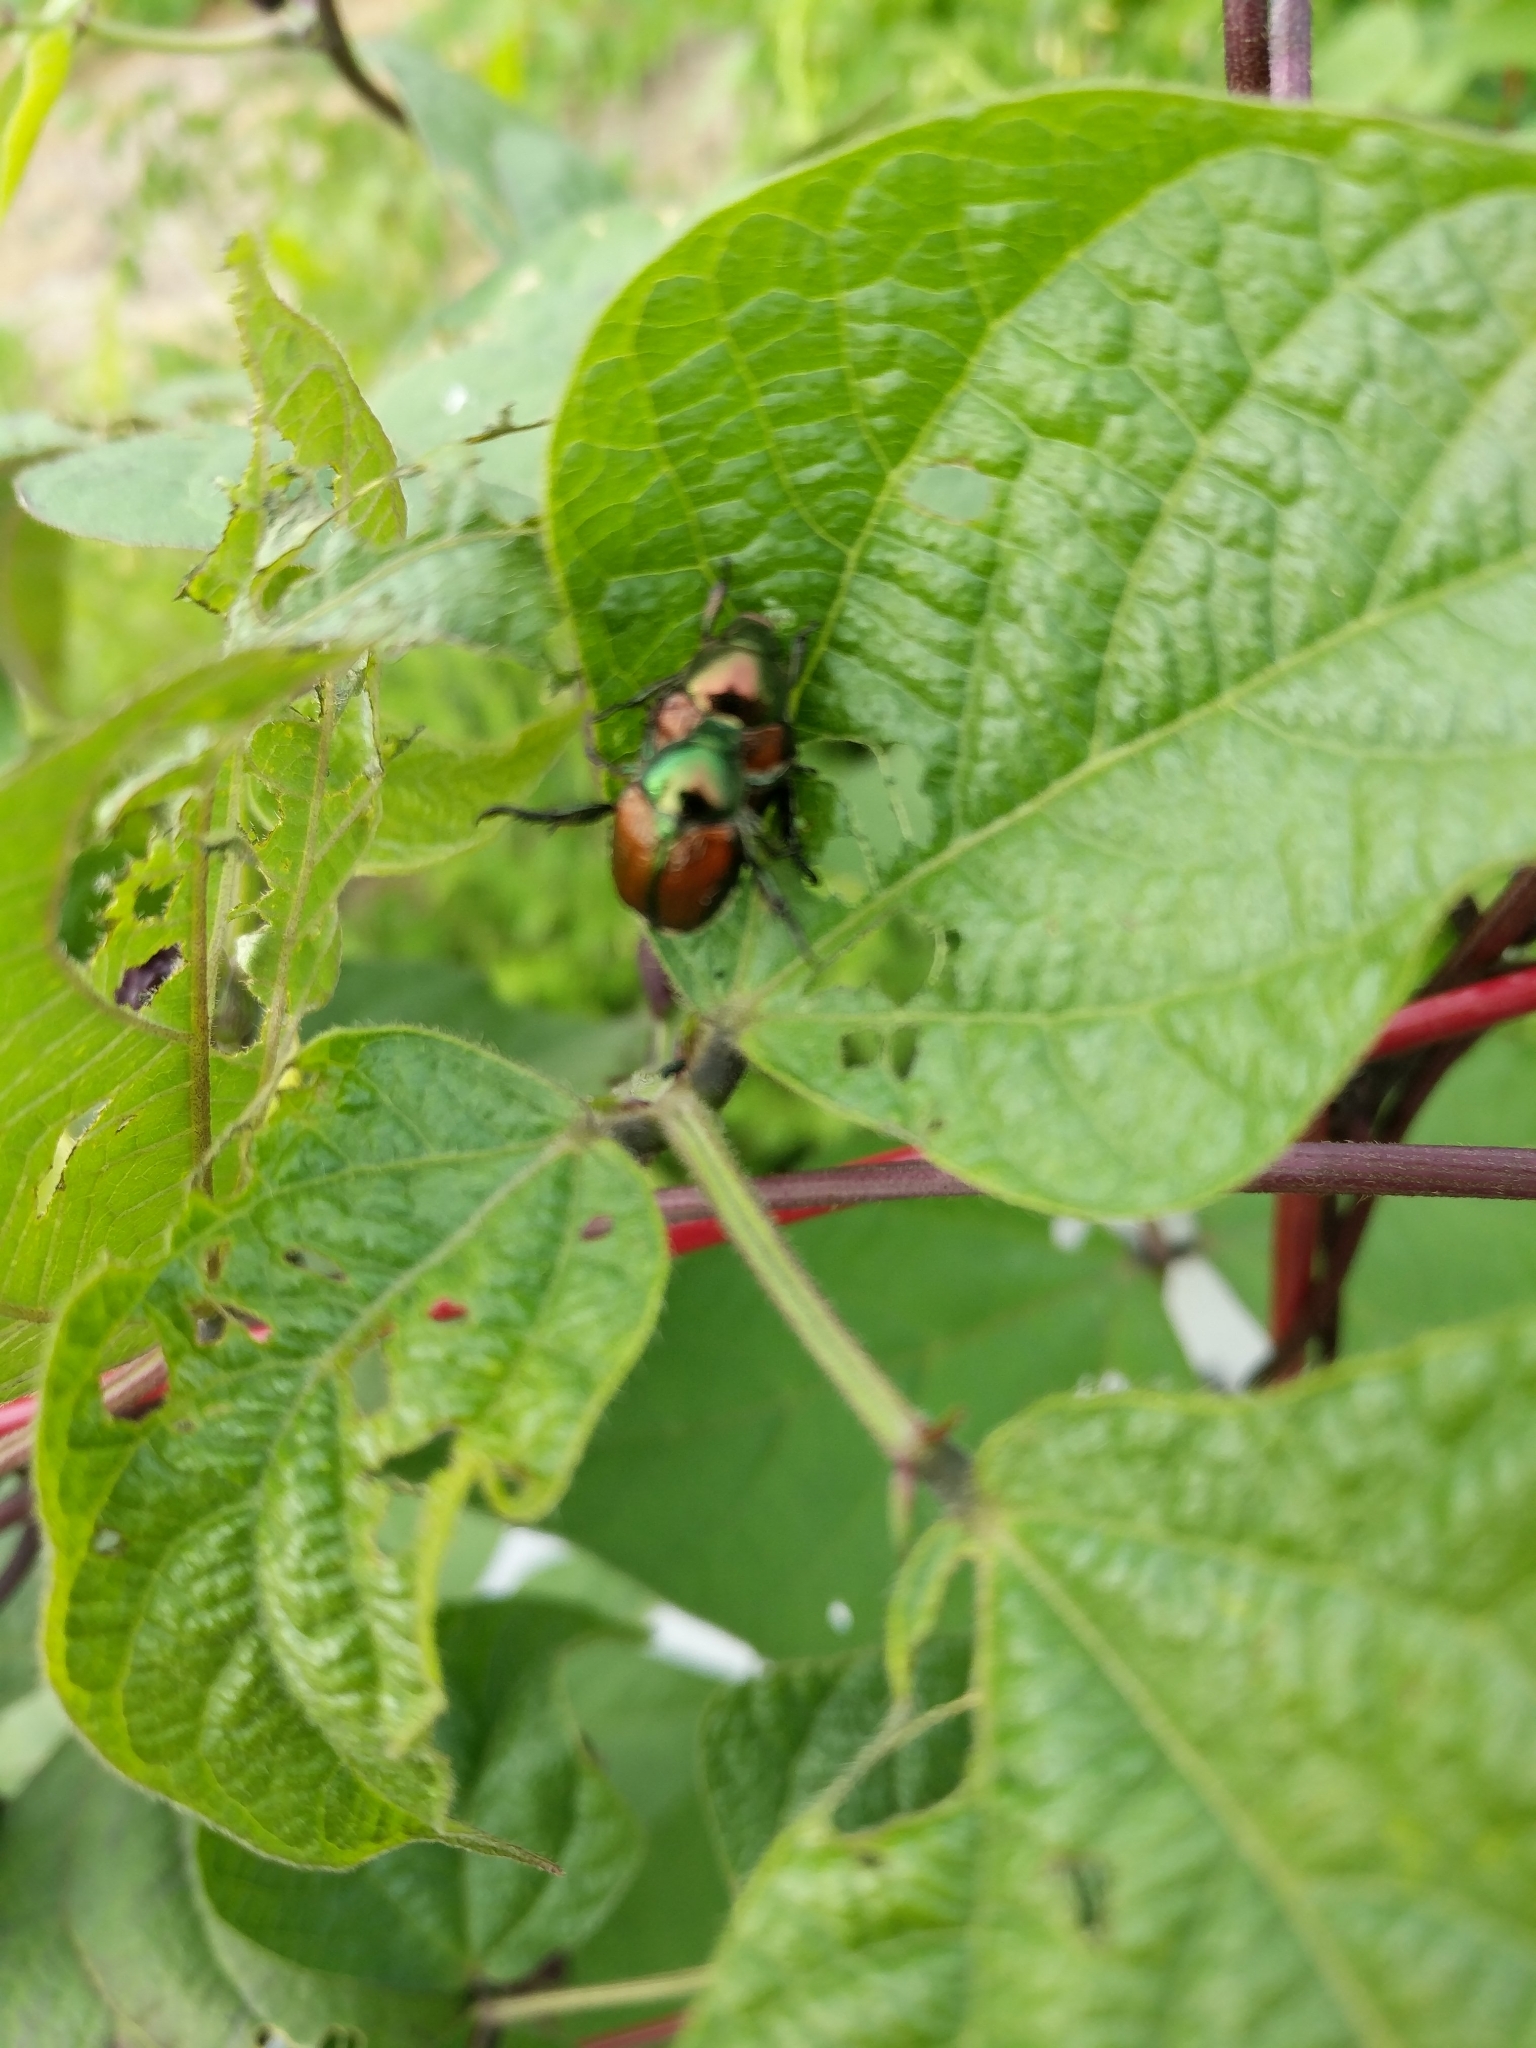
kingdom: Animalia
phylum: Arthropoda
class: Insecta
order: Coleoptera
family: Scarabaeidae
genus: Popillia
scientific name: Popillia japonica
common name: Japanese beetle
